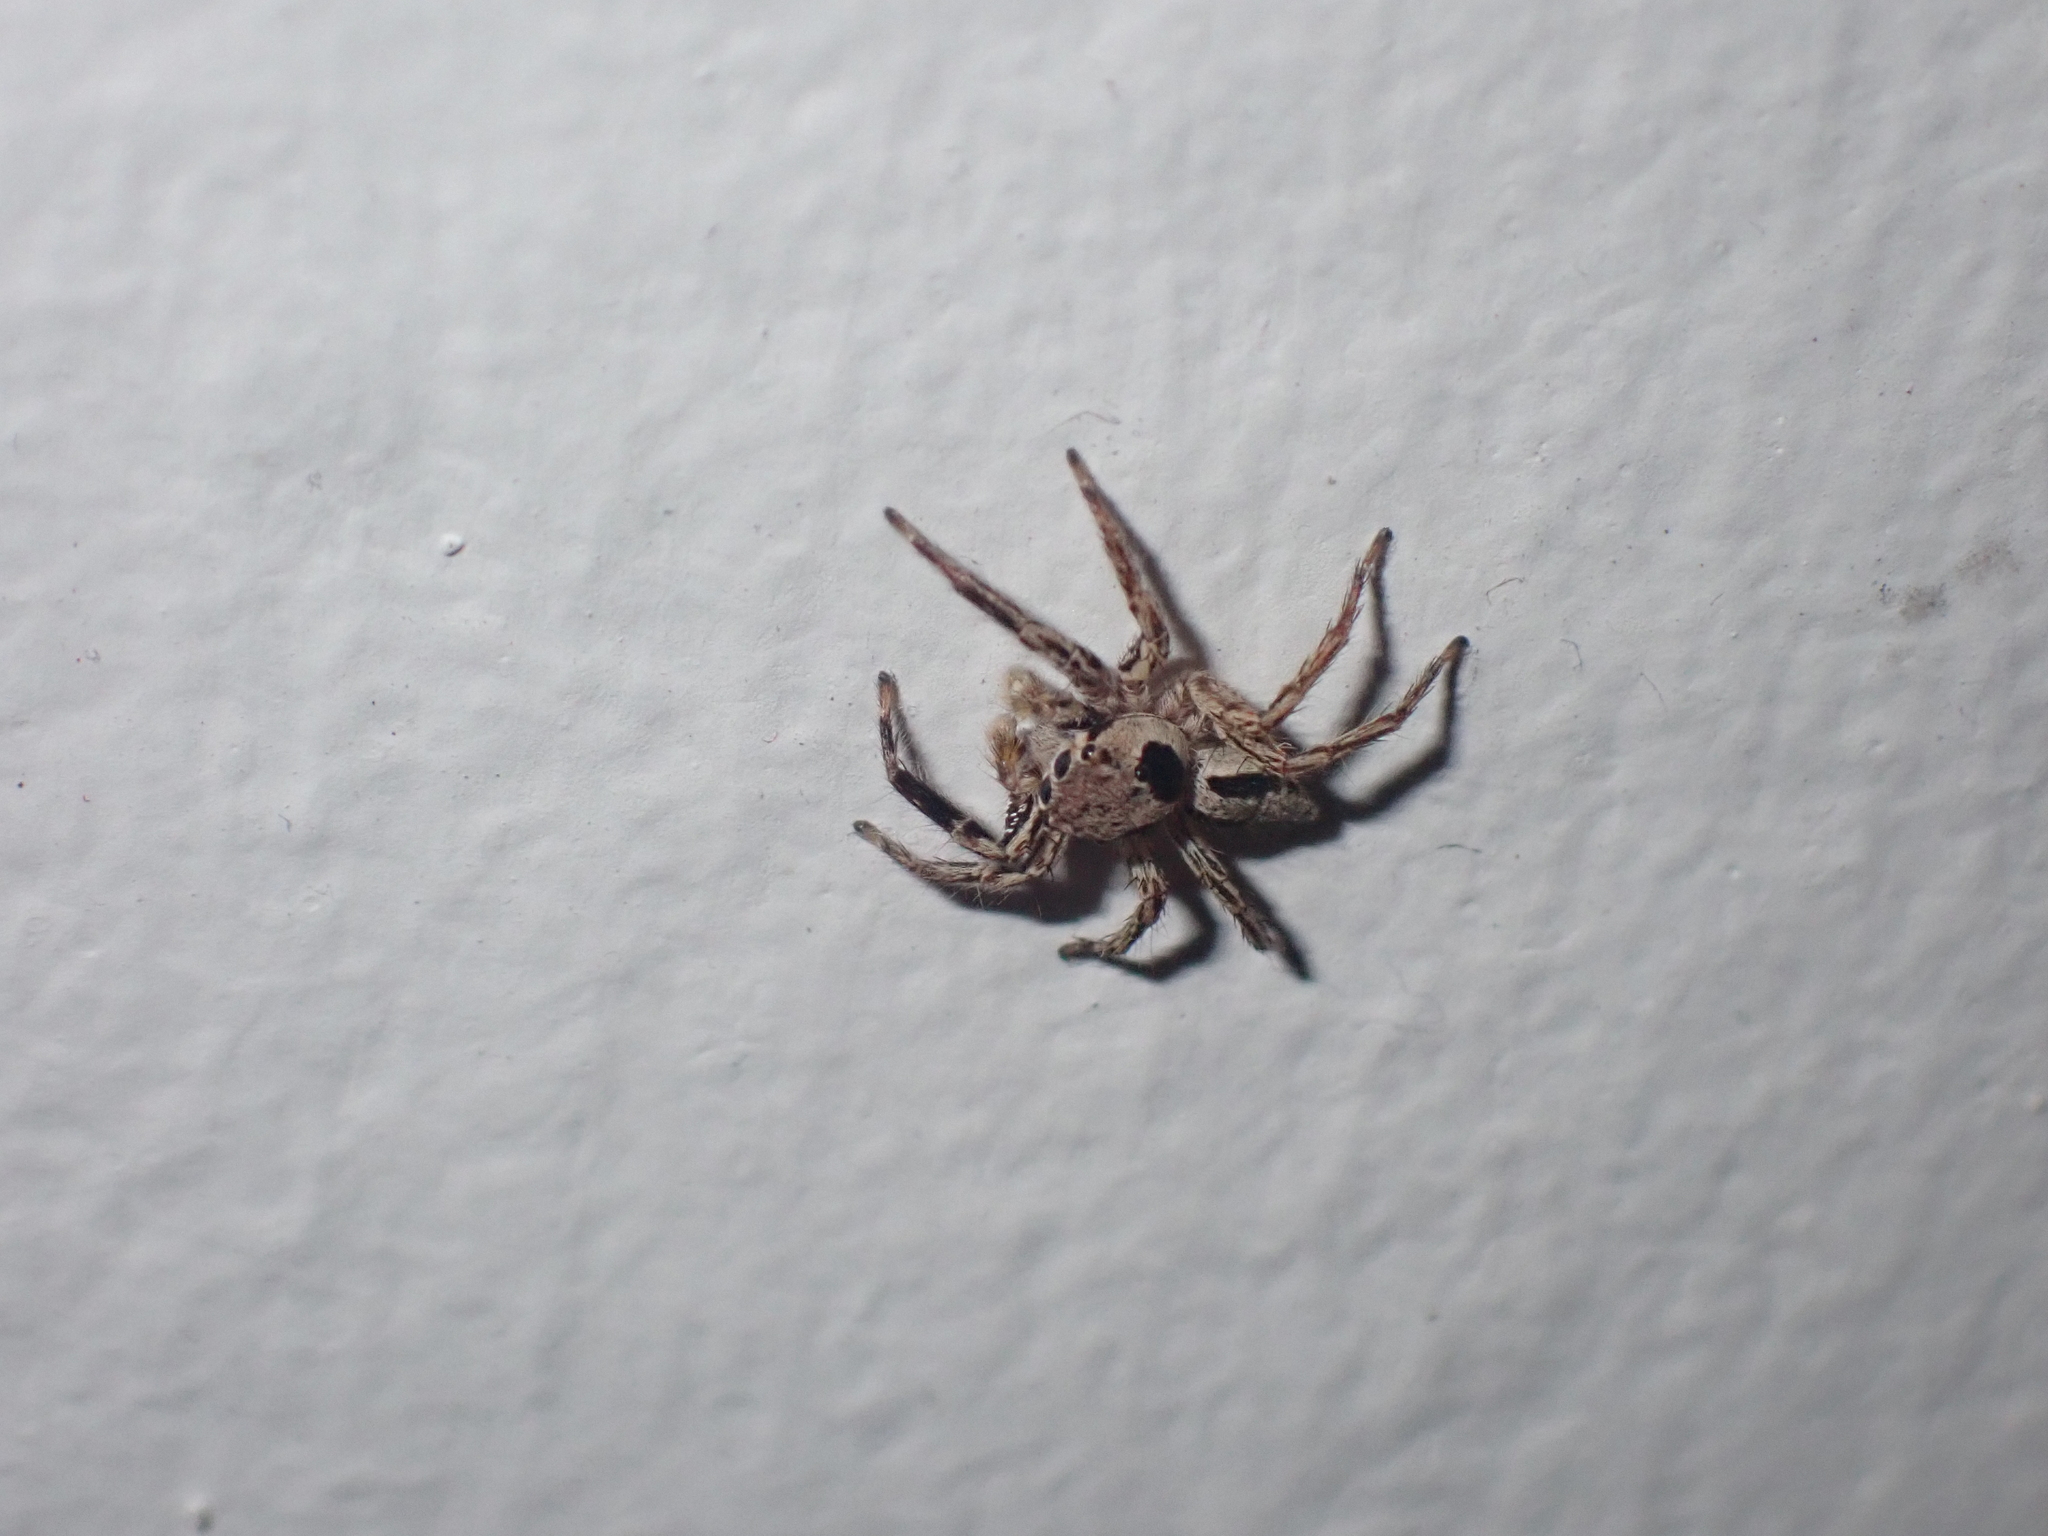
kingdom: Animalia
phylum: Arthropoda
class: Arachnida
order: Araneae
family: Salticidae
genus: Plexippus
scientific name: Plexippus petersi
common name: Jumping spider
